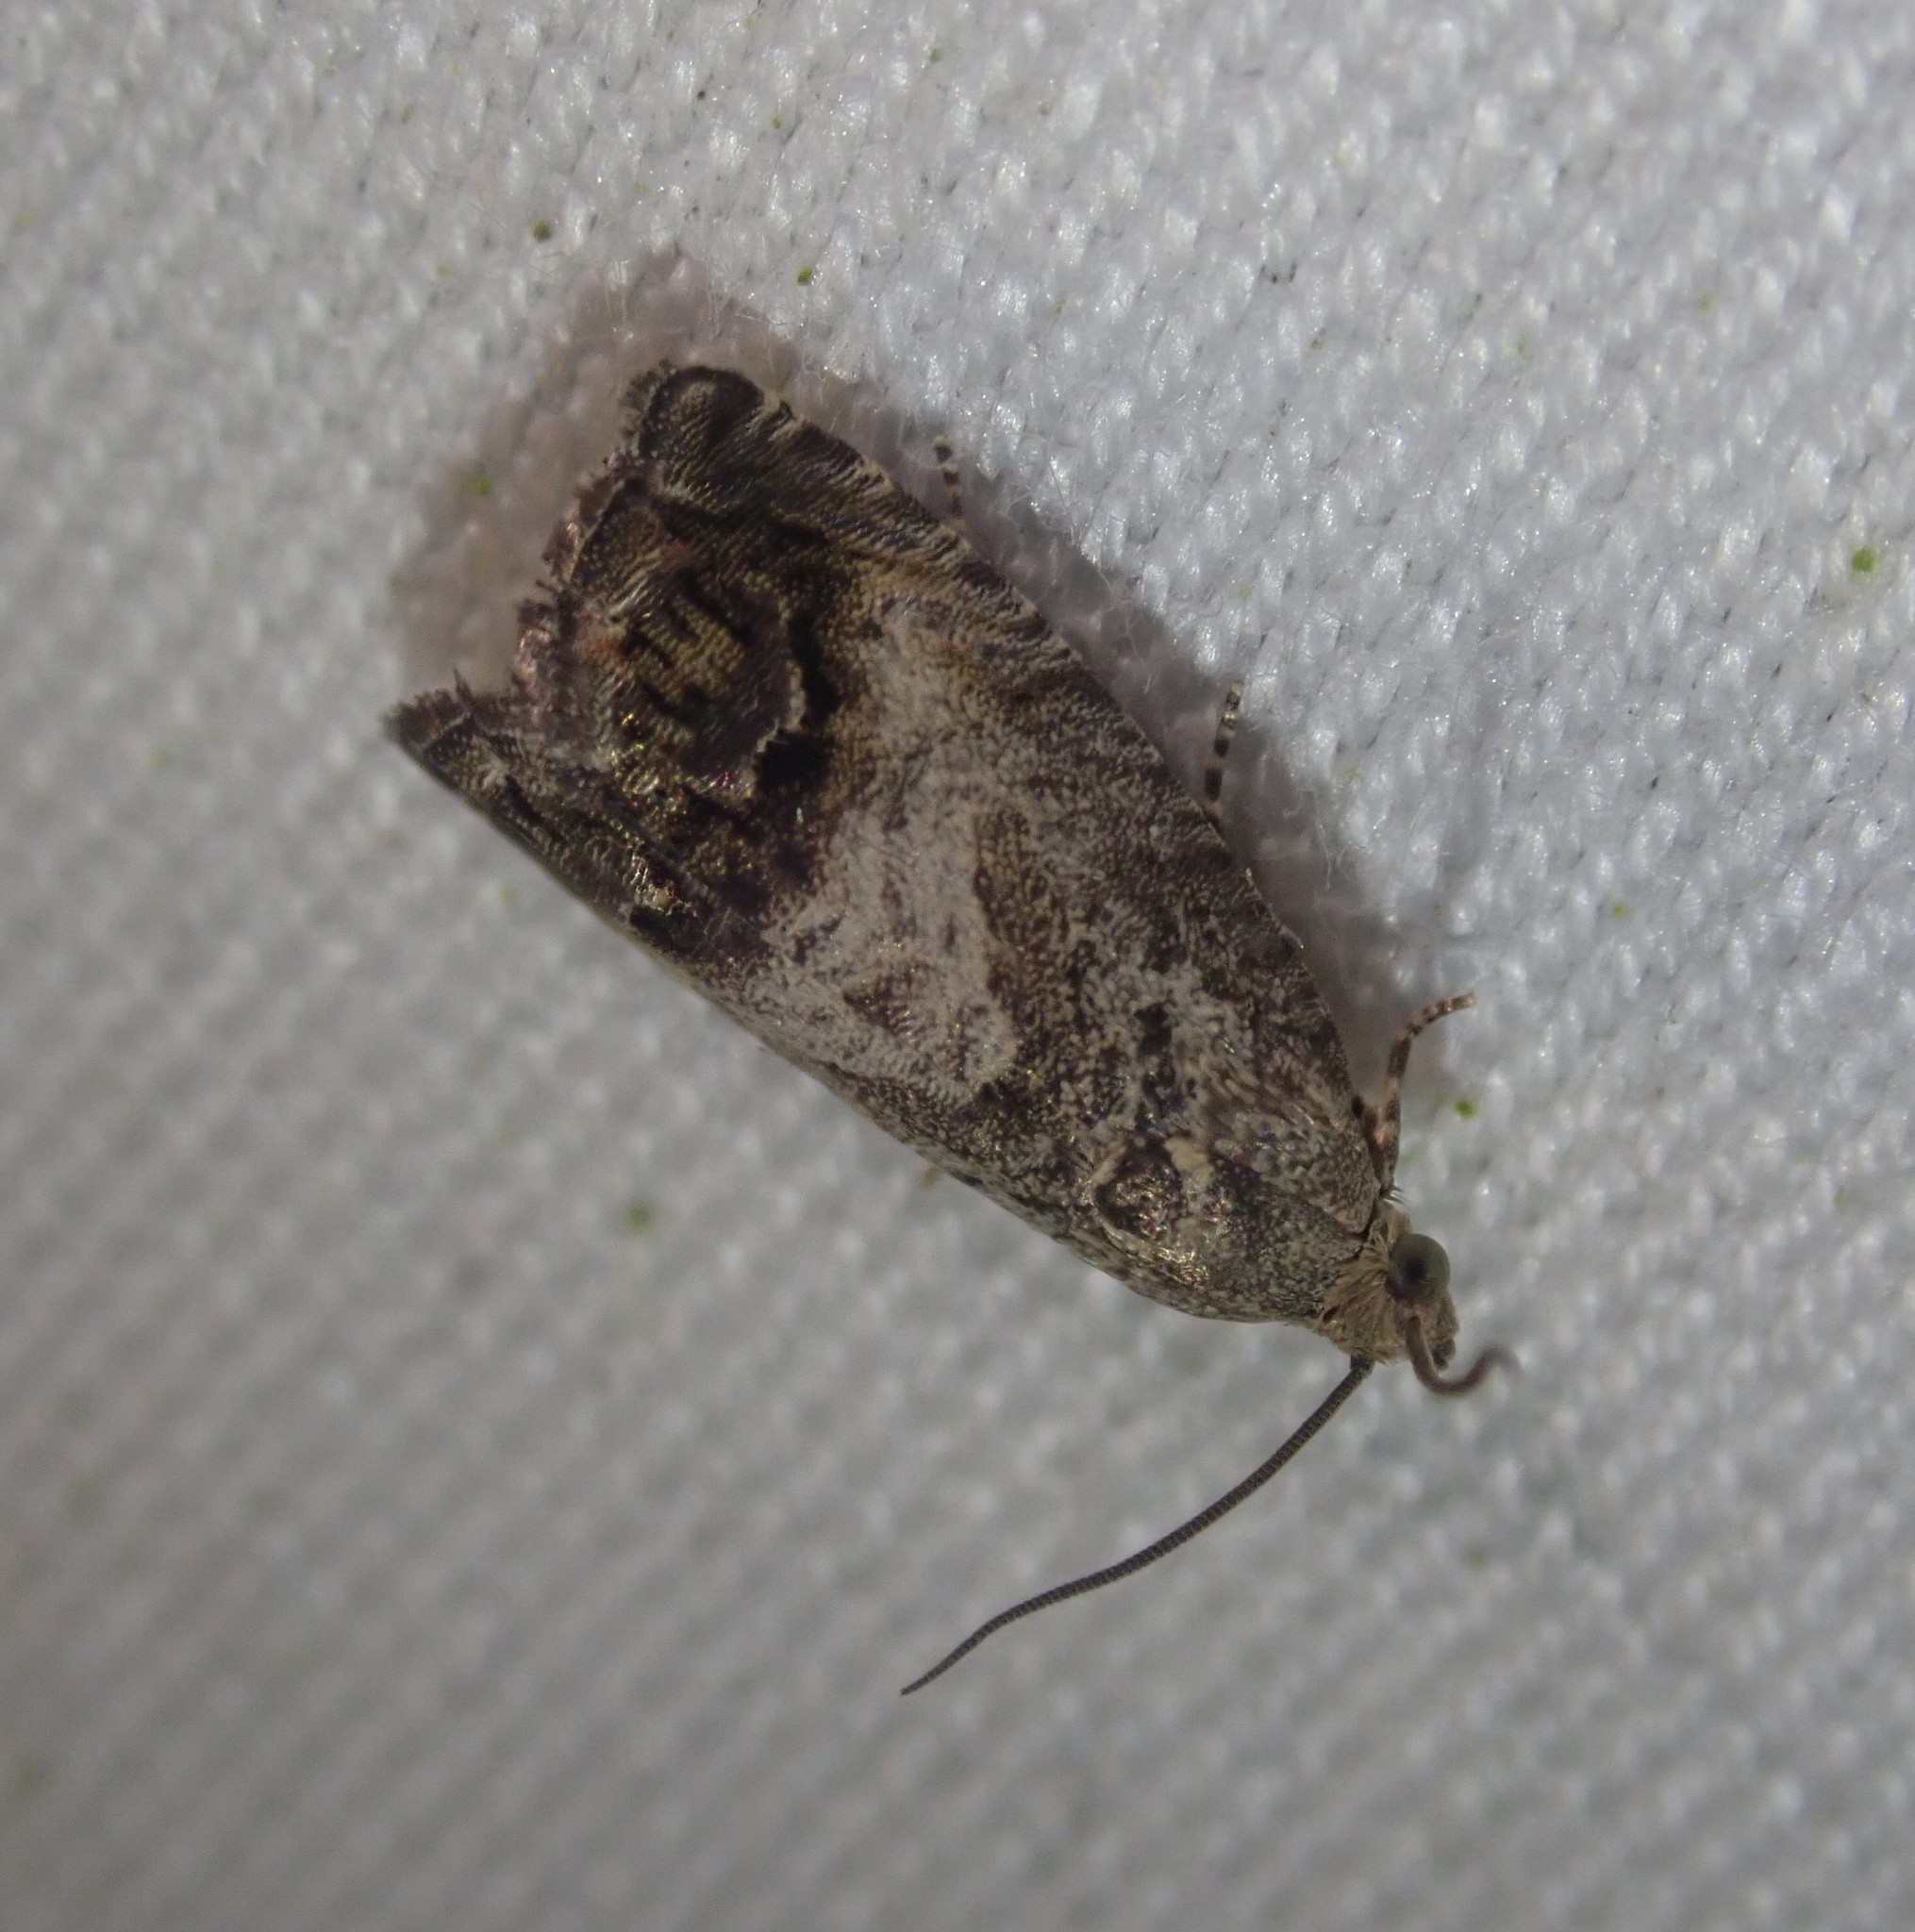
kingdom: Animalia
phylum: Arthropoda
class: Insecta
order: Lepidoptera
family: Tortricidae
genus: Cydia
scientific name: Cydia splendana
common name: De: kastanienwickler, eichenwickler es: oruga de la castaña fr: carpocapse des châtaignes it: cidia o tortrice tardiva delle castagne pt: bichado das castanhas gb: acorn moth, chestnut fruit tortrix
